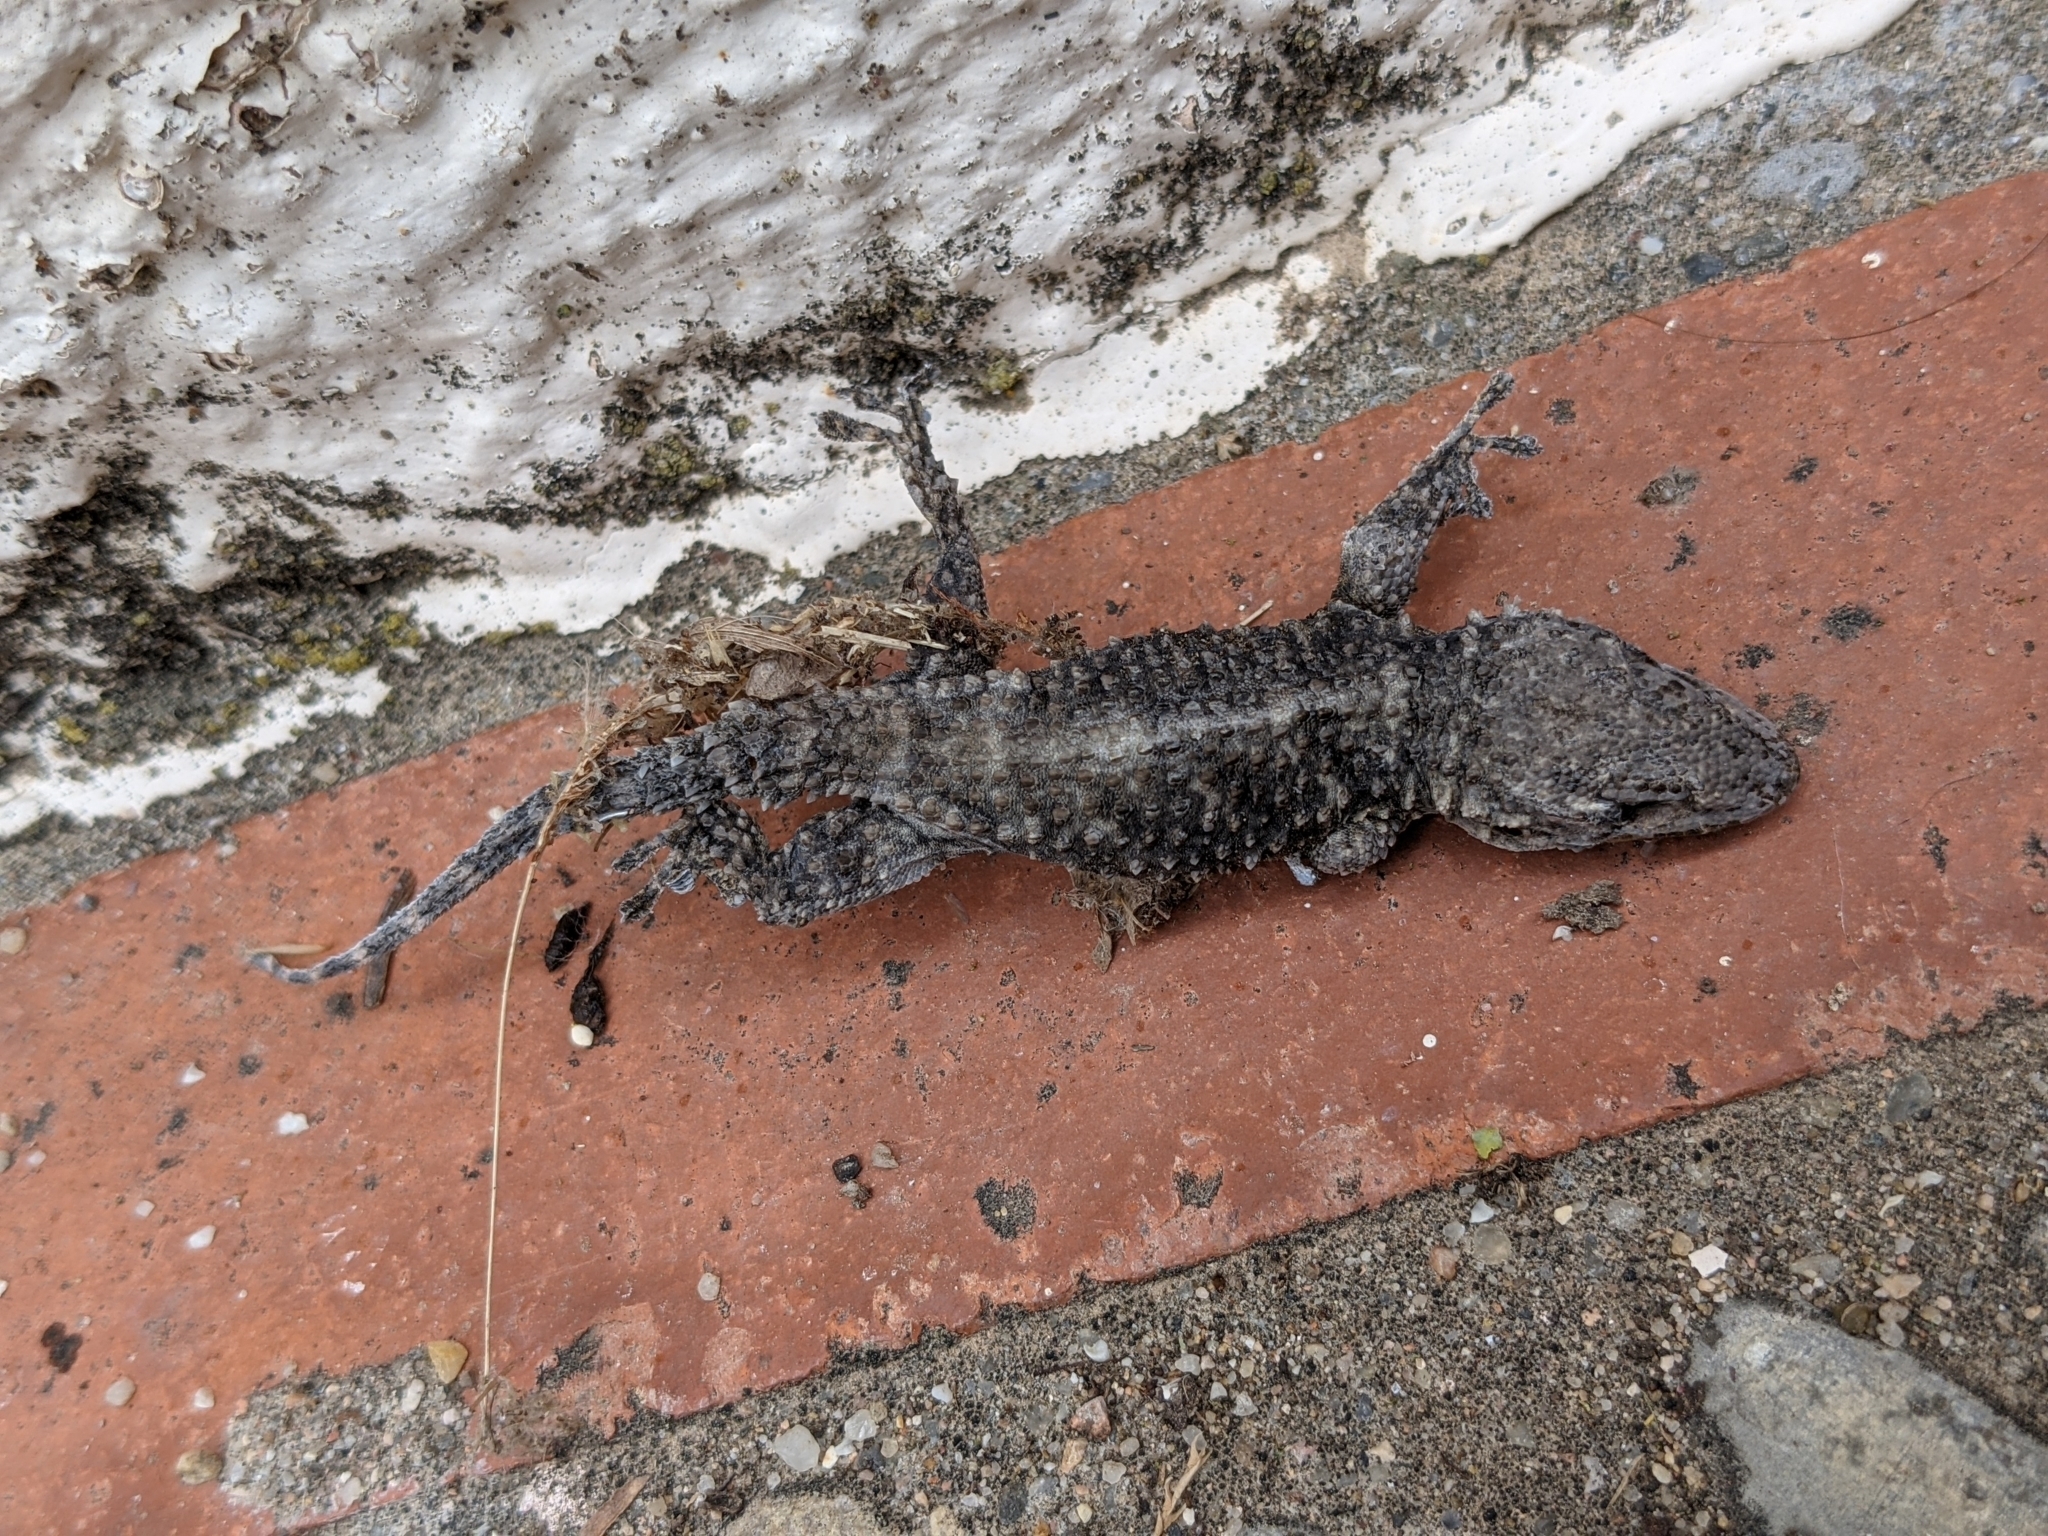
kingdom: Animalia
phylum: Chordata
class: Squamata
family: Phyllodactylidae
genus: Tarentola
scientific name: Tarentola mauritanica
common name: Moorish gecko
